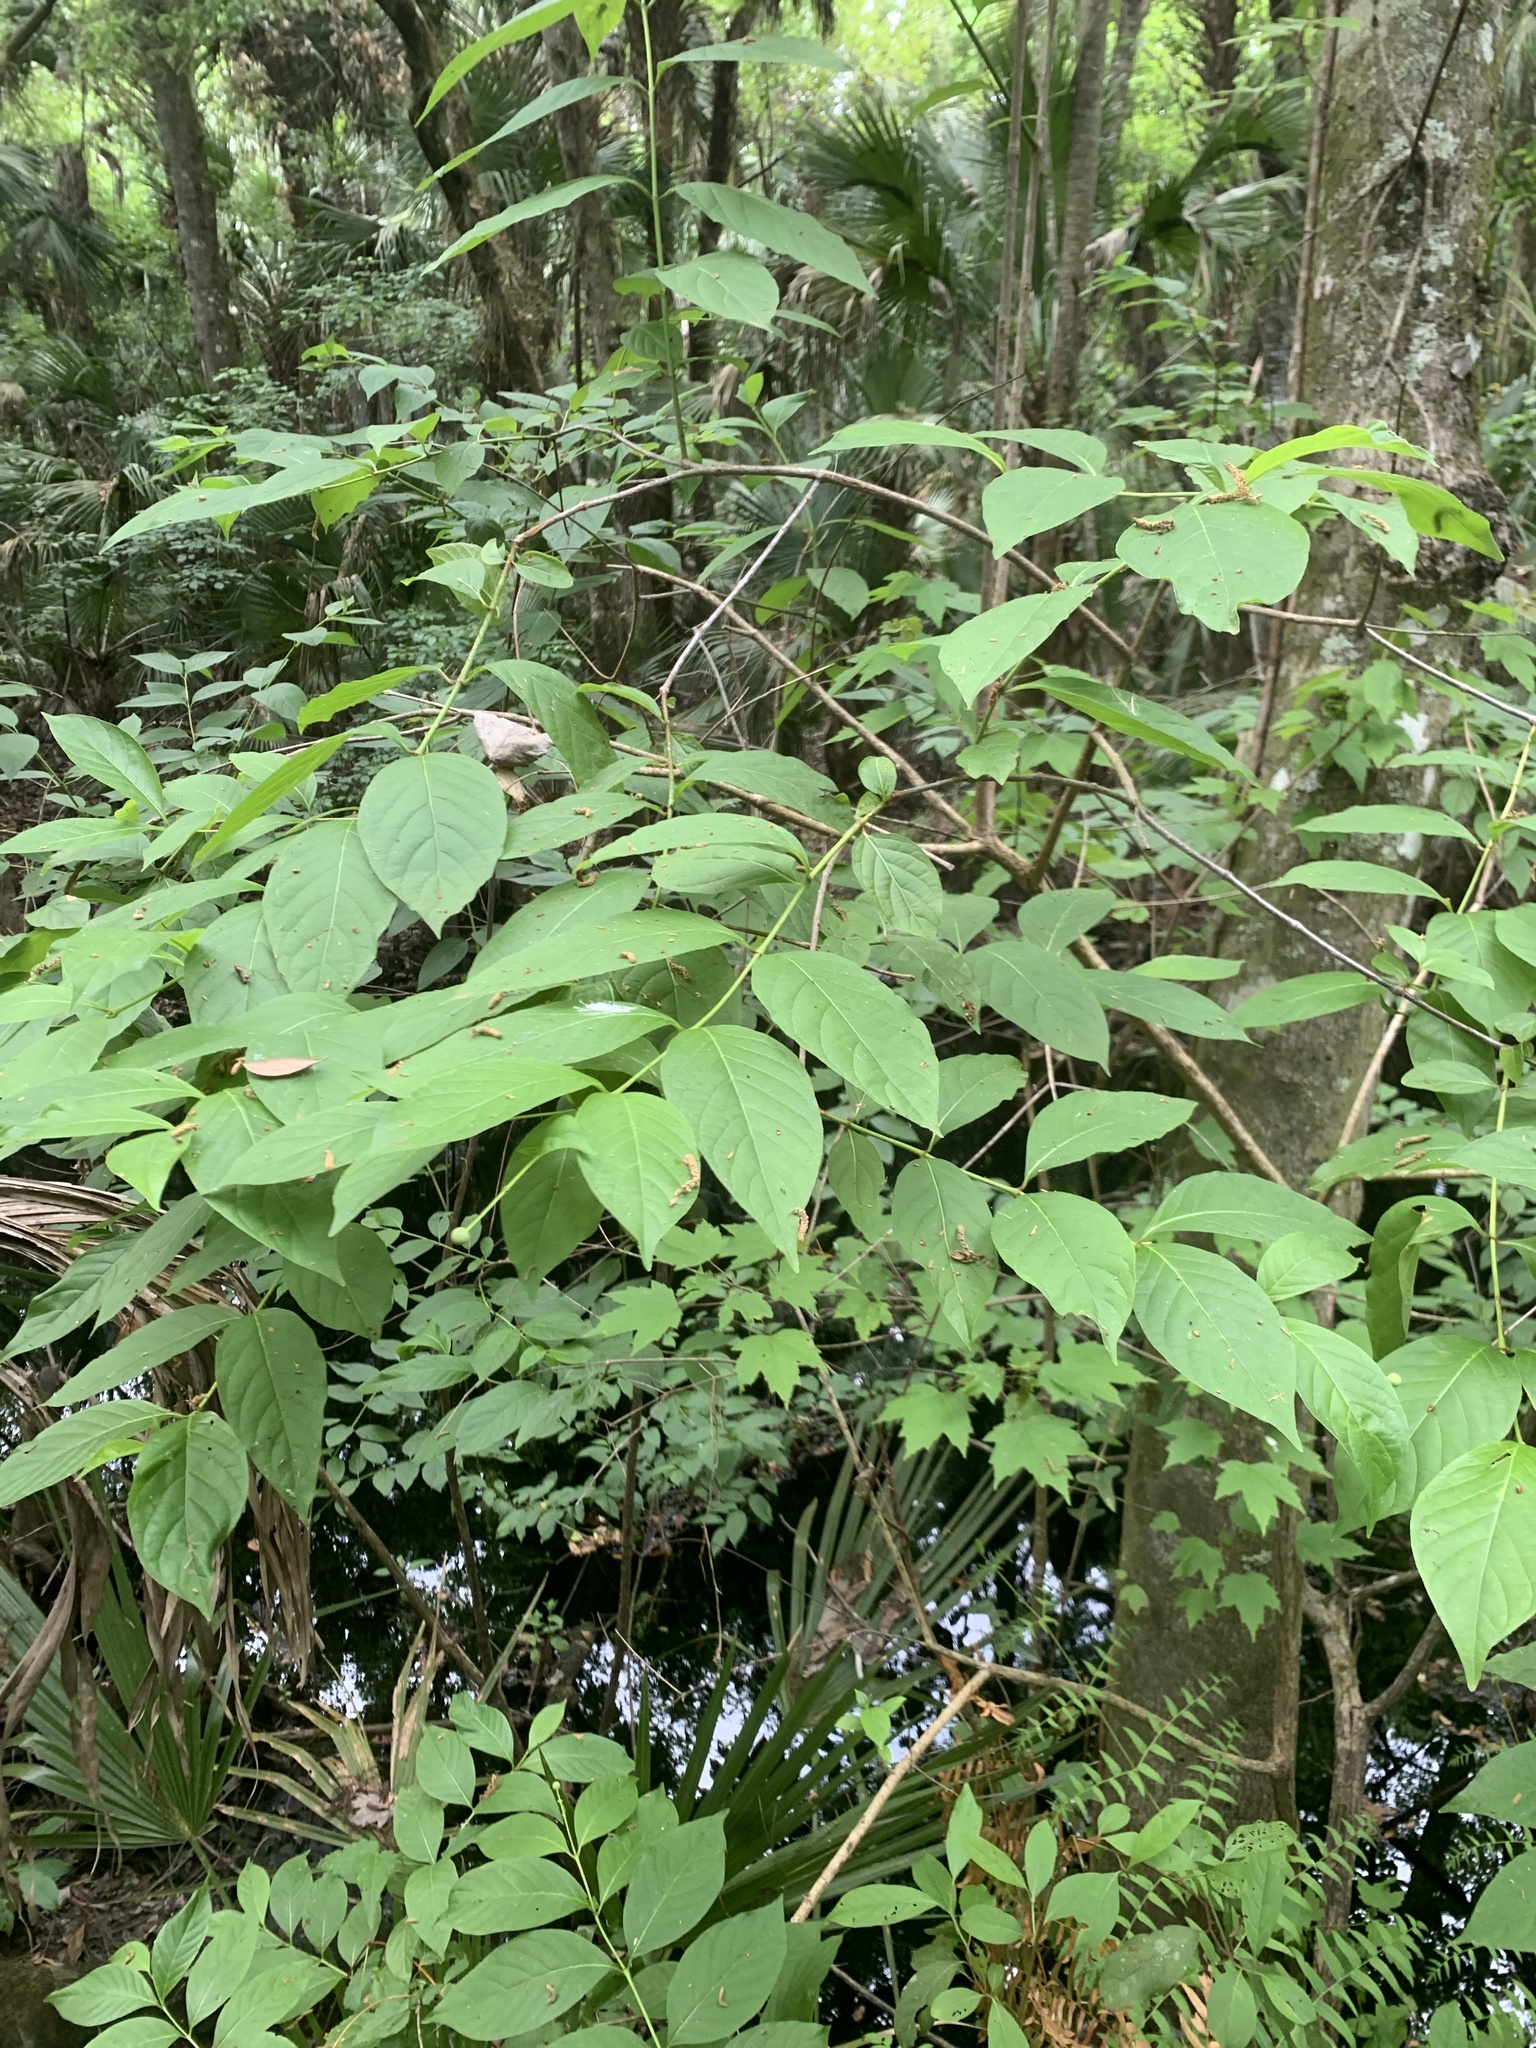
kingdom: Plantae
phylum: Tracheophyta
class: Magnoliopsida
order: Gentianales
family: Rubiaceae
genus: Cephalanthus
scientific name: Cephalanthus occidentalis
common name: Button-willow
